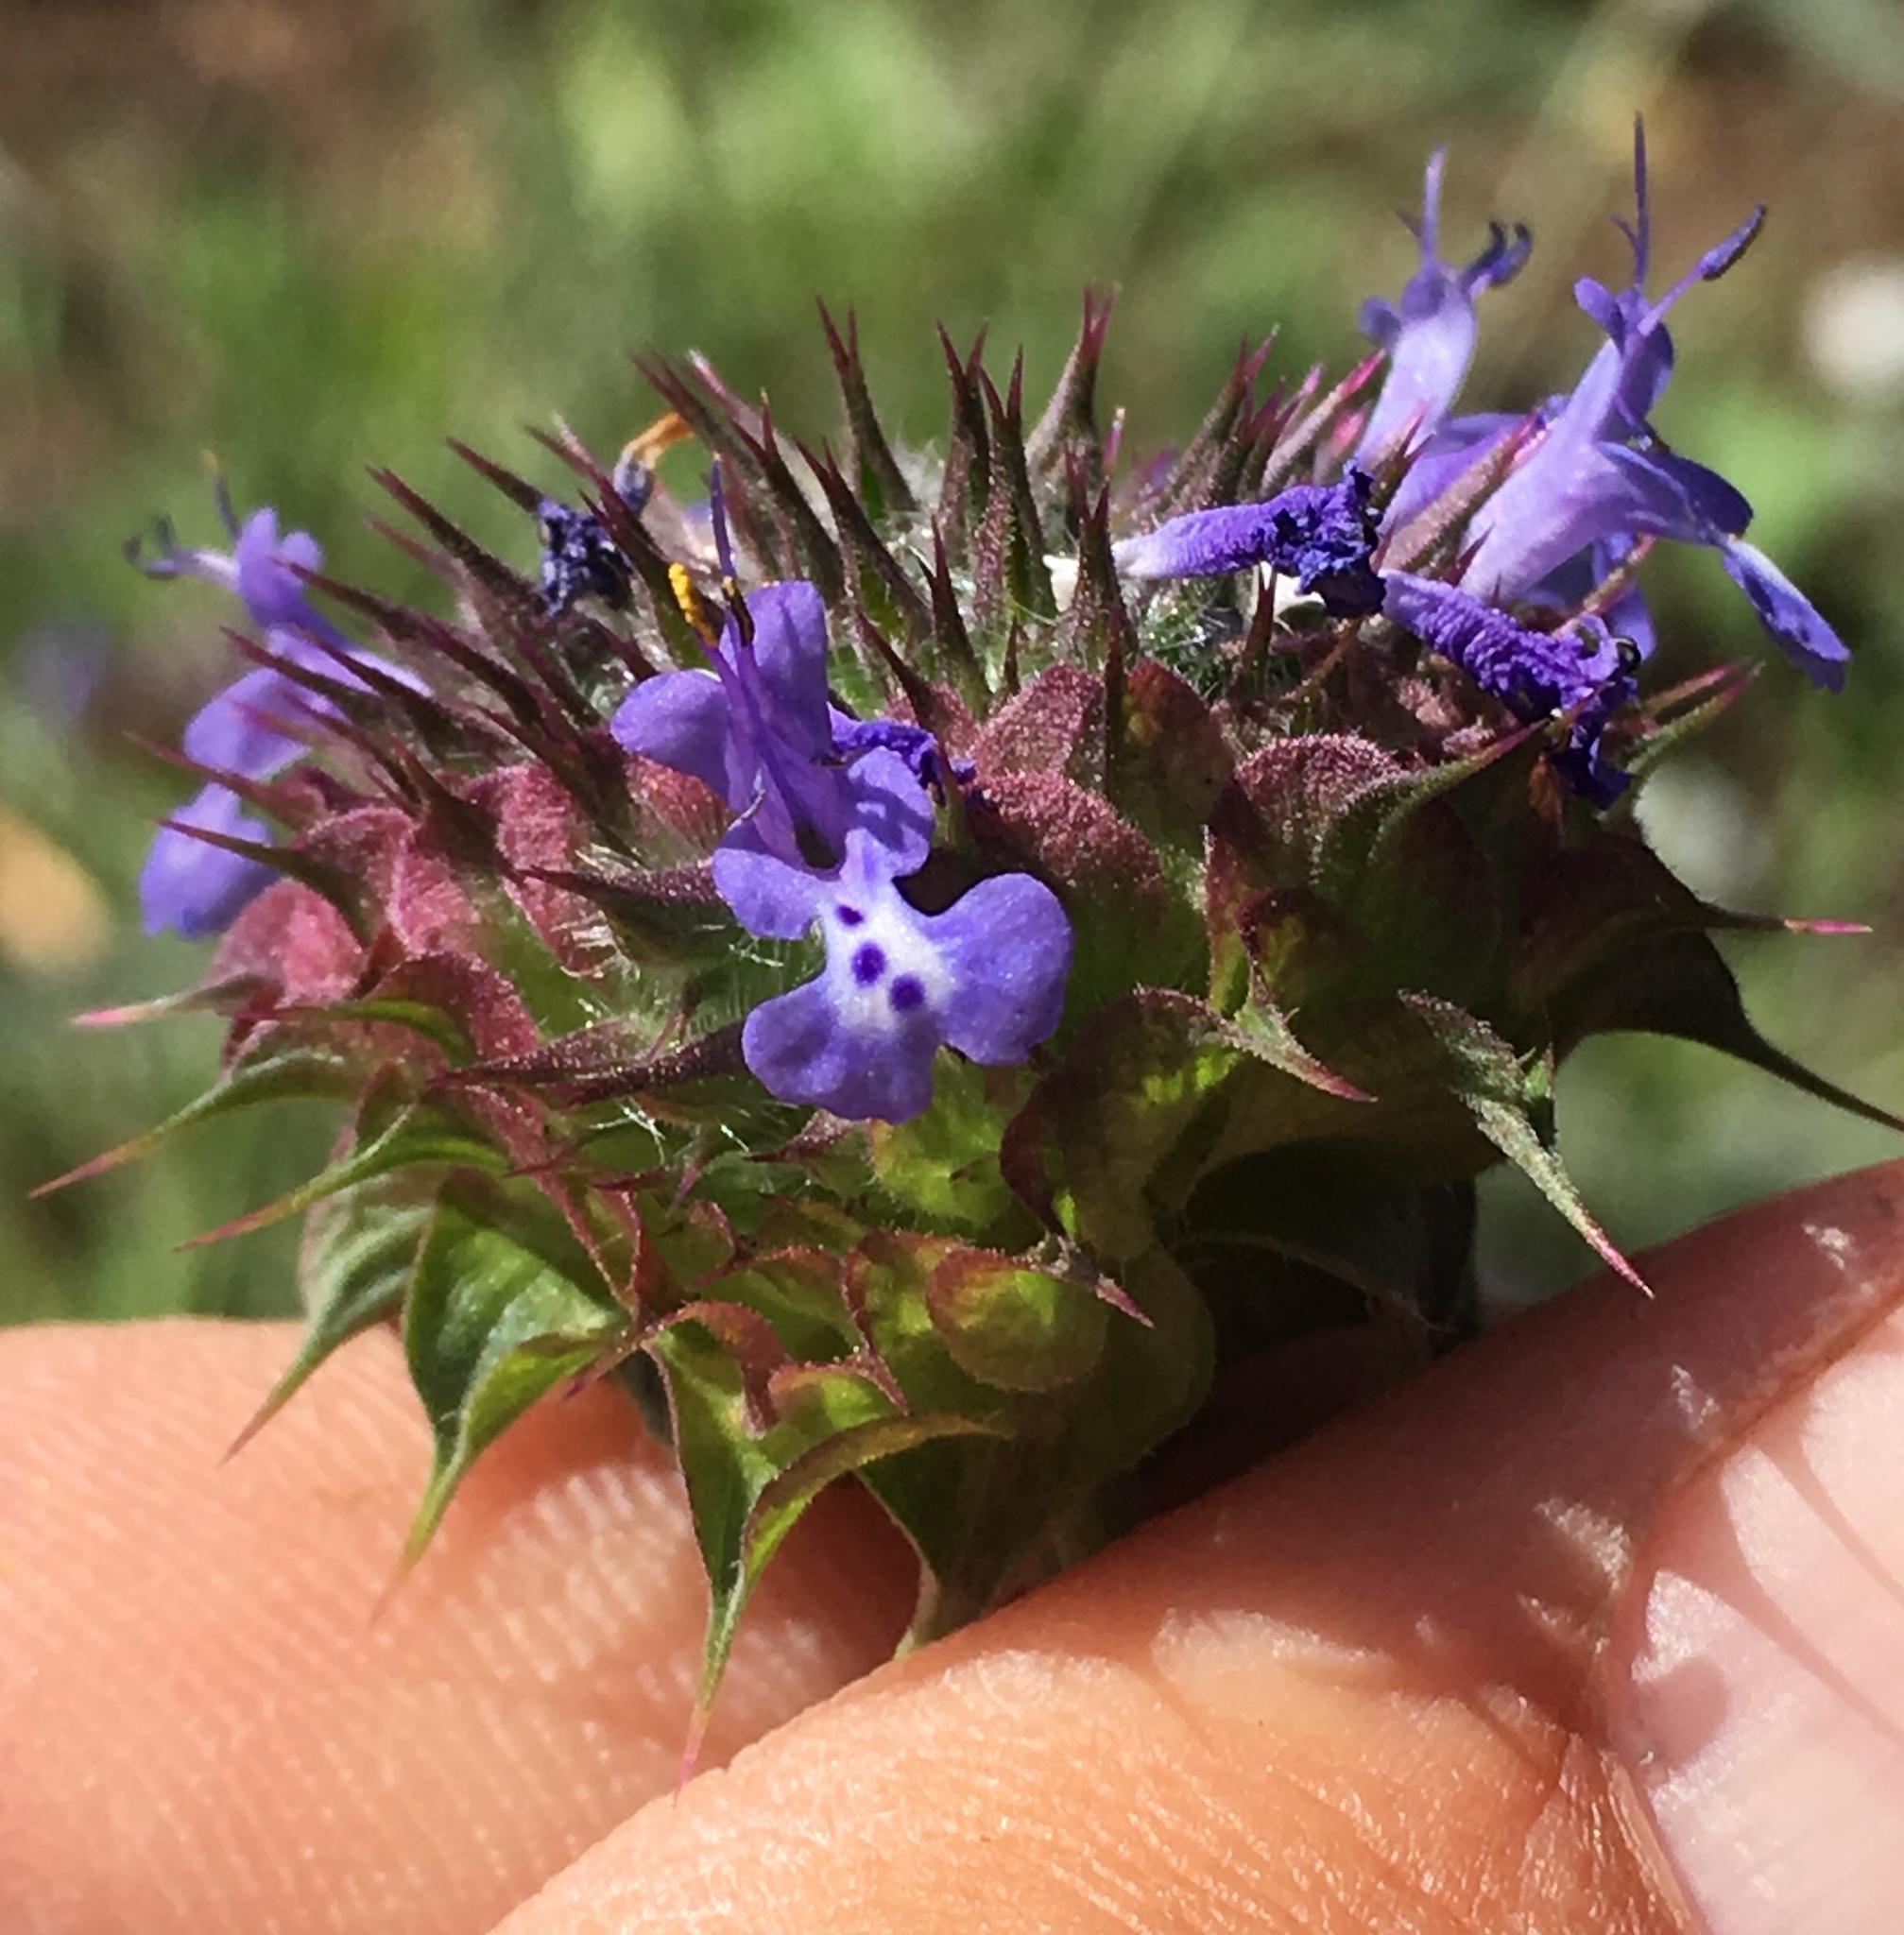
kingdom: Plantae
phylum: Tracheophyta
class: Magnoliopsida
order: Lamiales
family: Lamiaceae
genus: Salvia
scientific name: Salvia columbariae
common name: Chia
